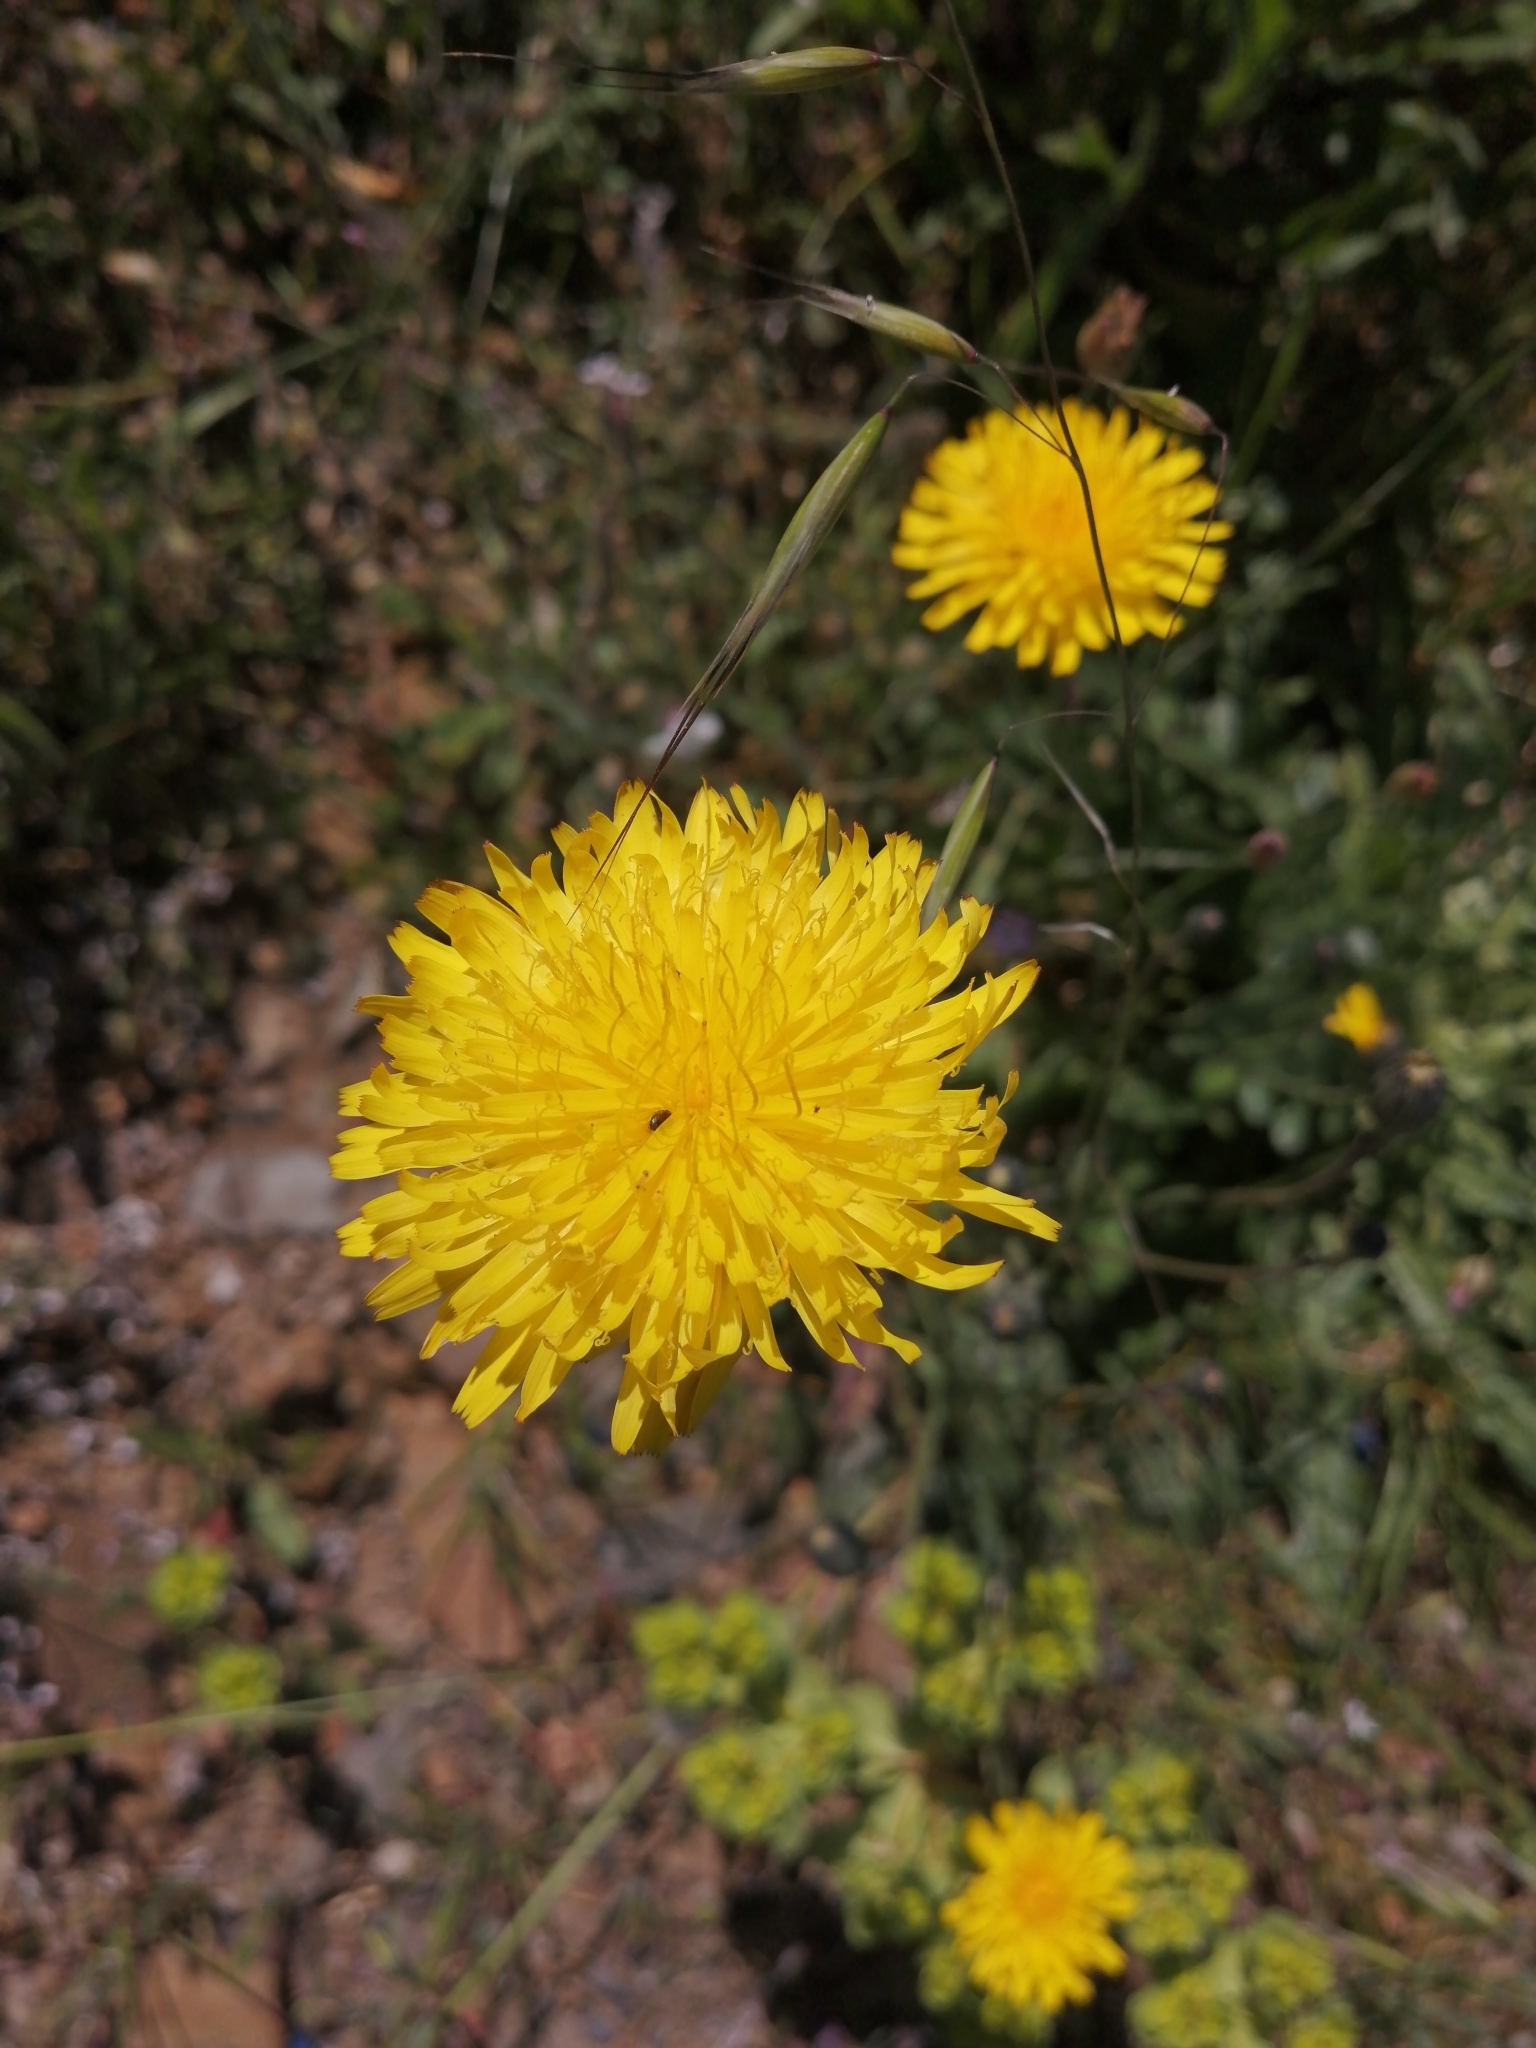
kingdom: Plantae
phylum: Tracheophyta
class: Magnoliopsida
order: Asterales
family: Asteraceae
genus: Hypochaeris
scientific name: Hypochaeris radicata
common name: Flatweed
